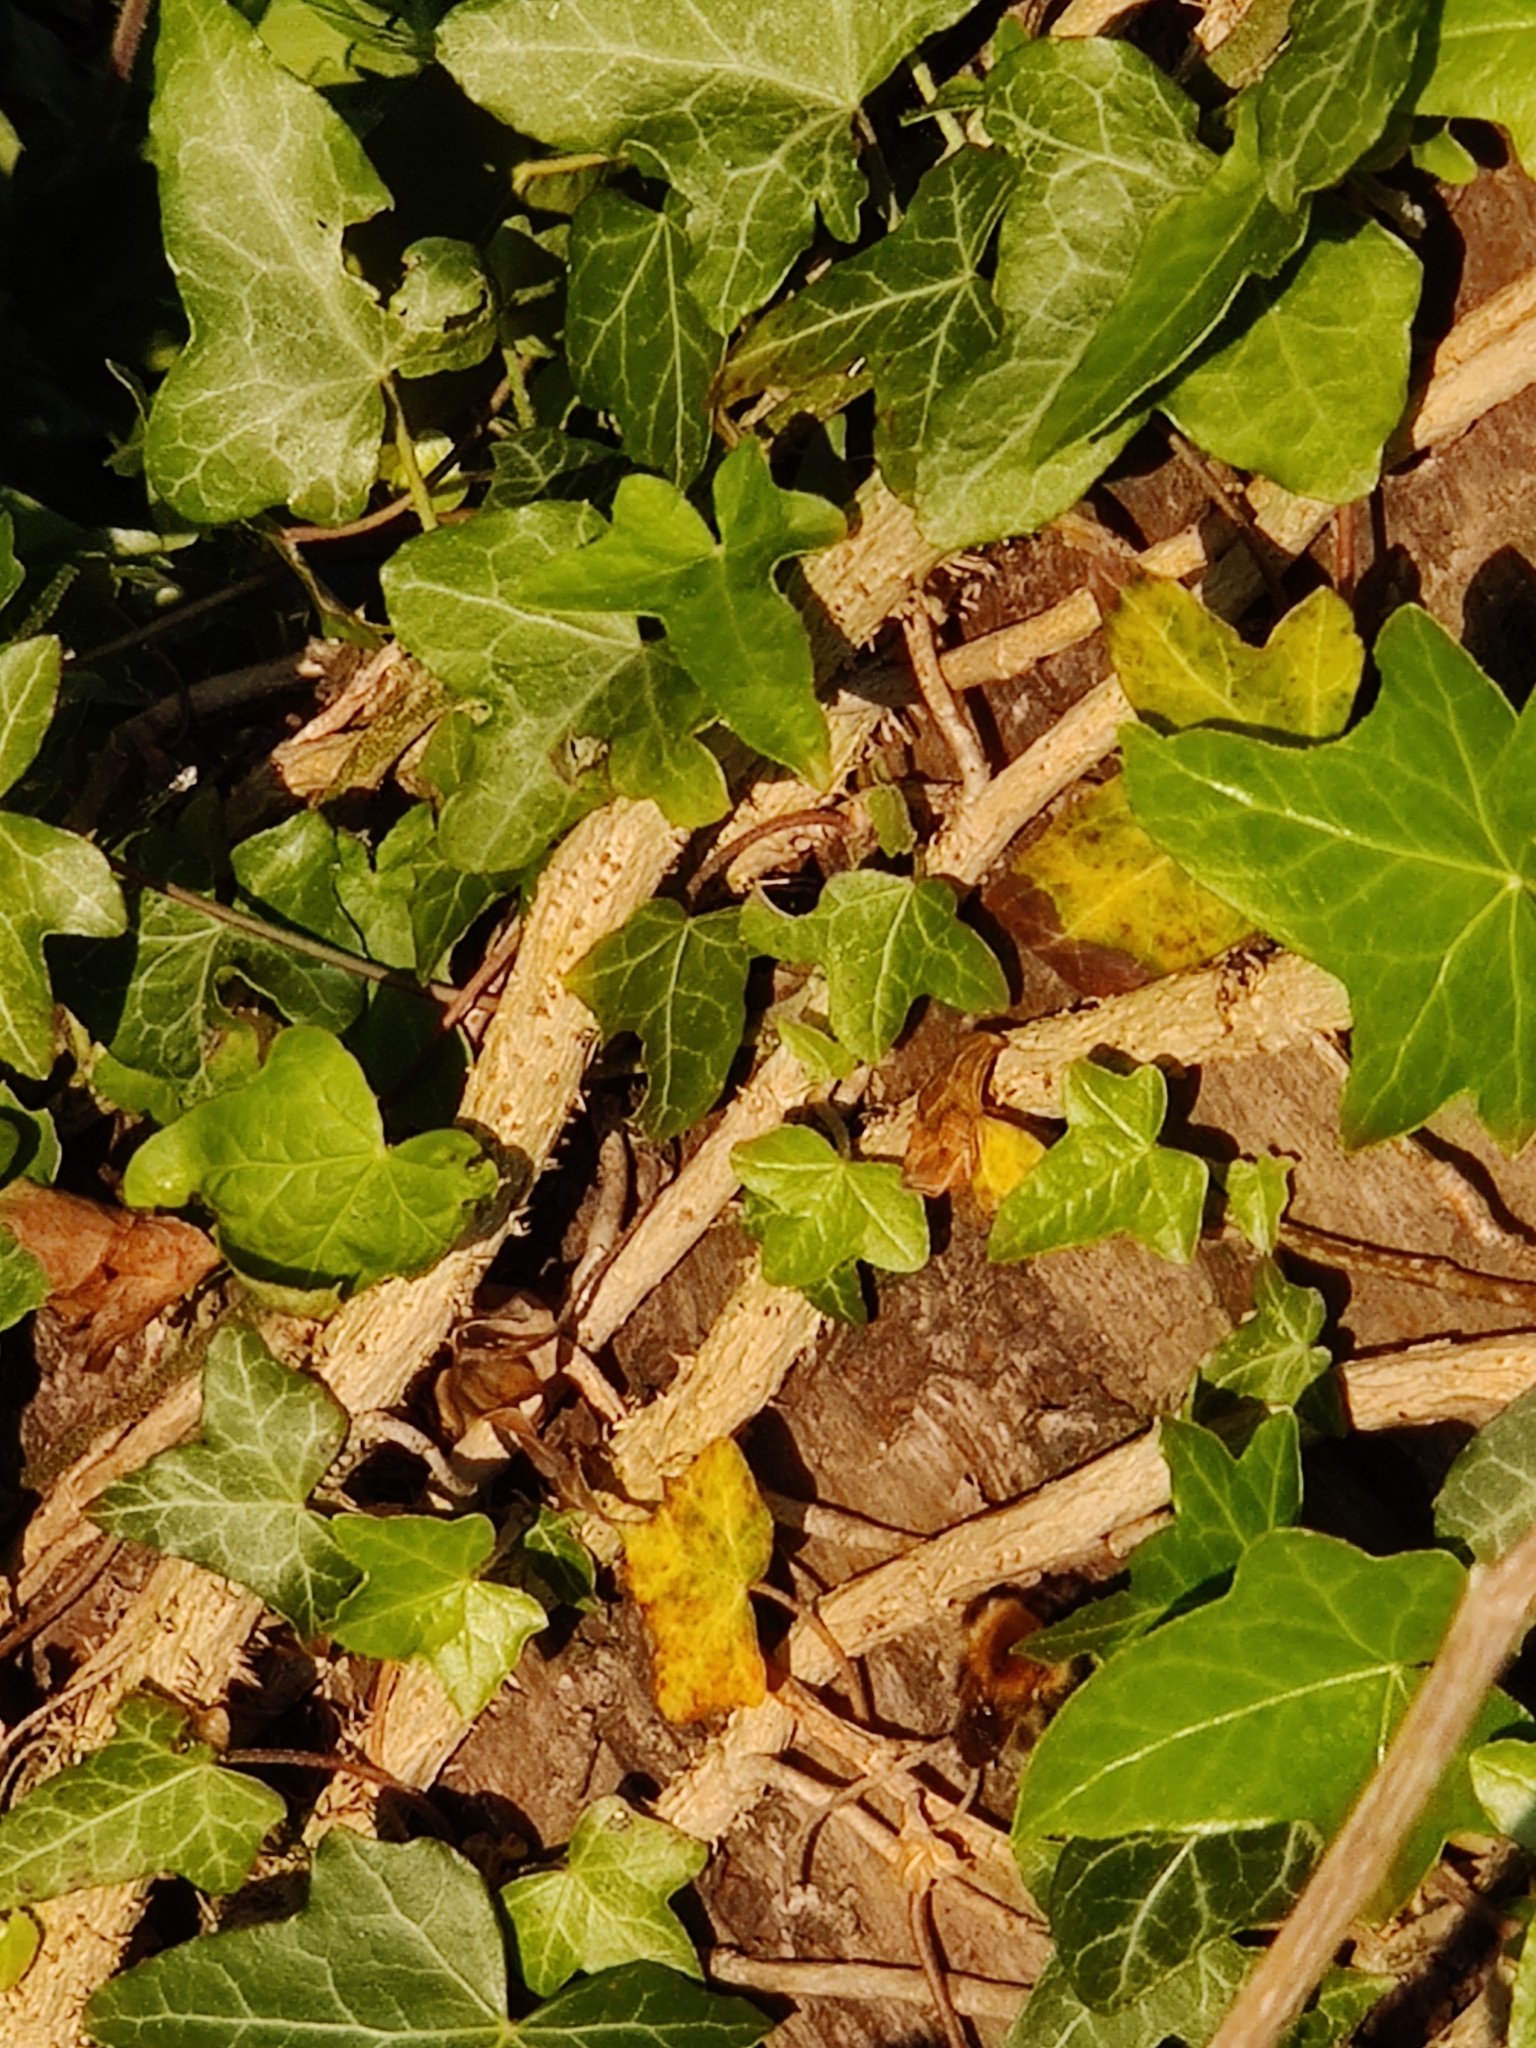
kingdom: Plantae
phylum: Tracheophyta
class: Magnoliopsida
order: Apiales
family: Araliaceae
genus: Hedera
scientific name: Hedera helix
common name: Ivy
